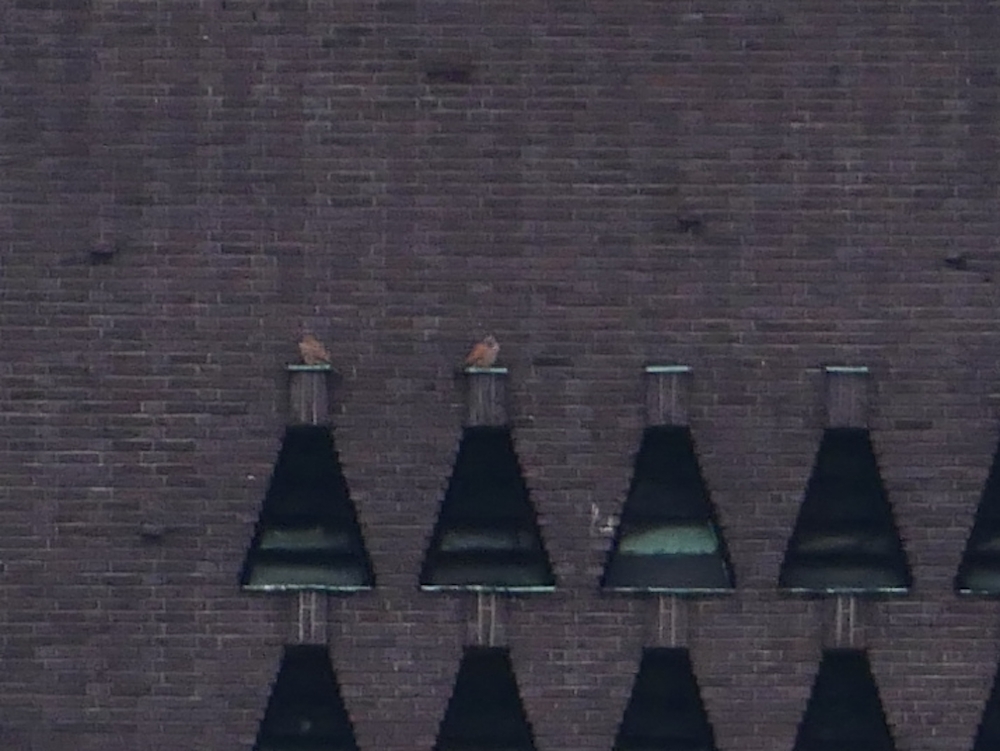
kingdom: Animalia
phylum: Chordata
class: Aves
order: Falconiformes
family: Falconidae
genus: Falco
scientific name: Falco tinnunculus
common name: Common kestrel
